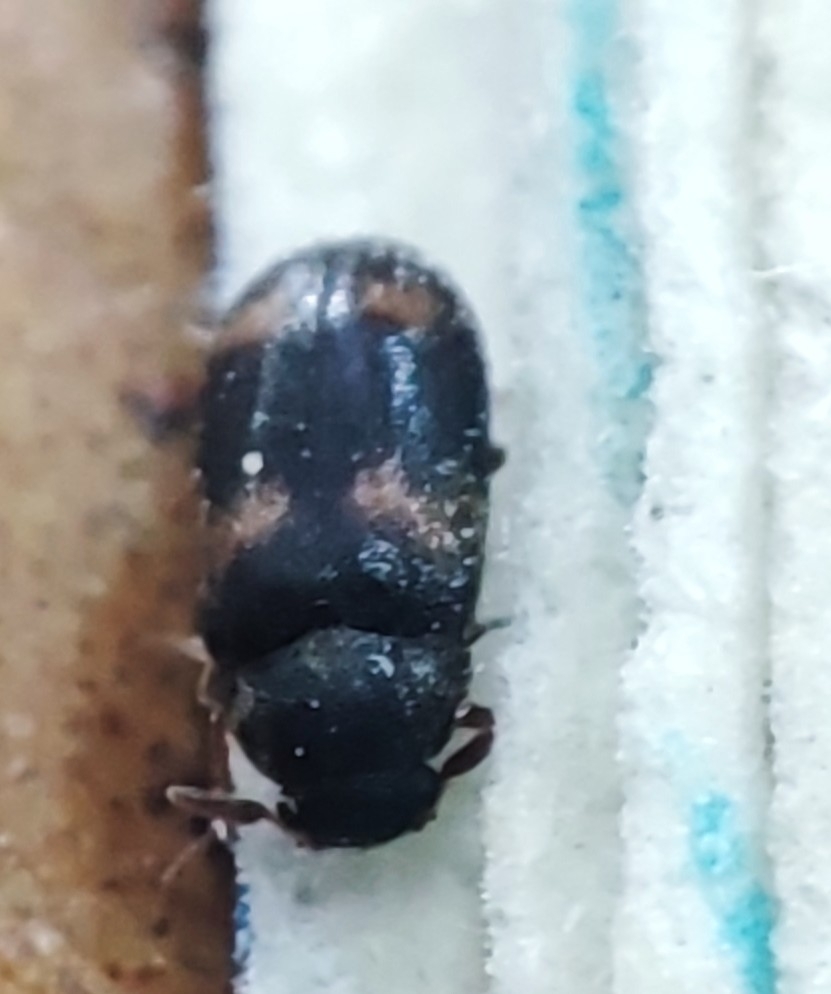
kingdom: Animalia
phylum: Arthropoda
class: Insecta
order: Coleoptera
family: Dermestidae
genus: Megatoma
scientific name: Megatoma tianschanica
